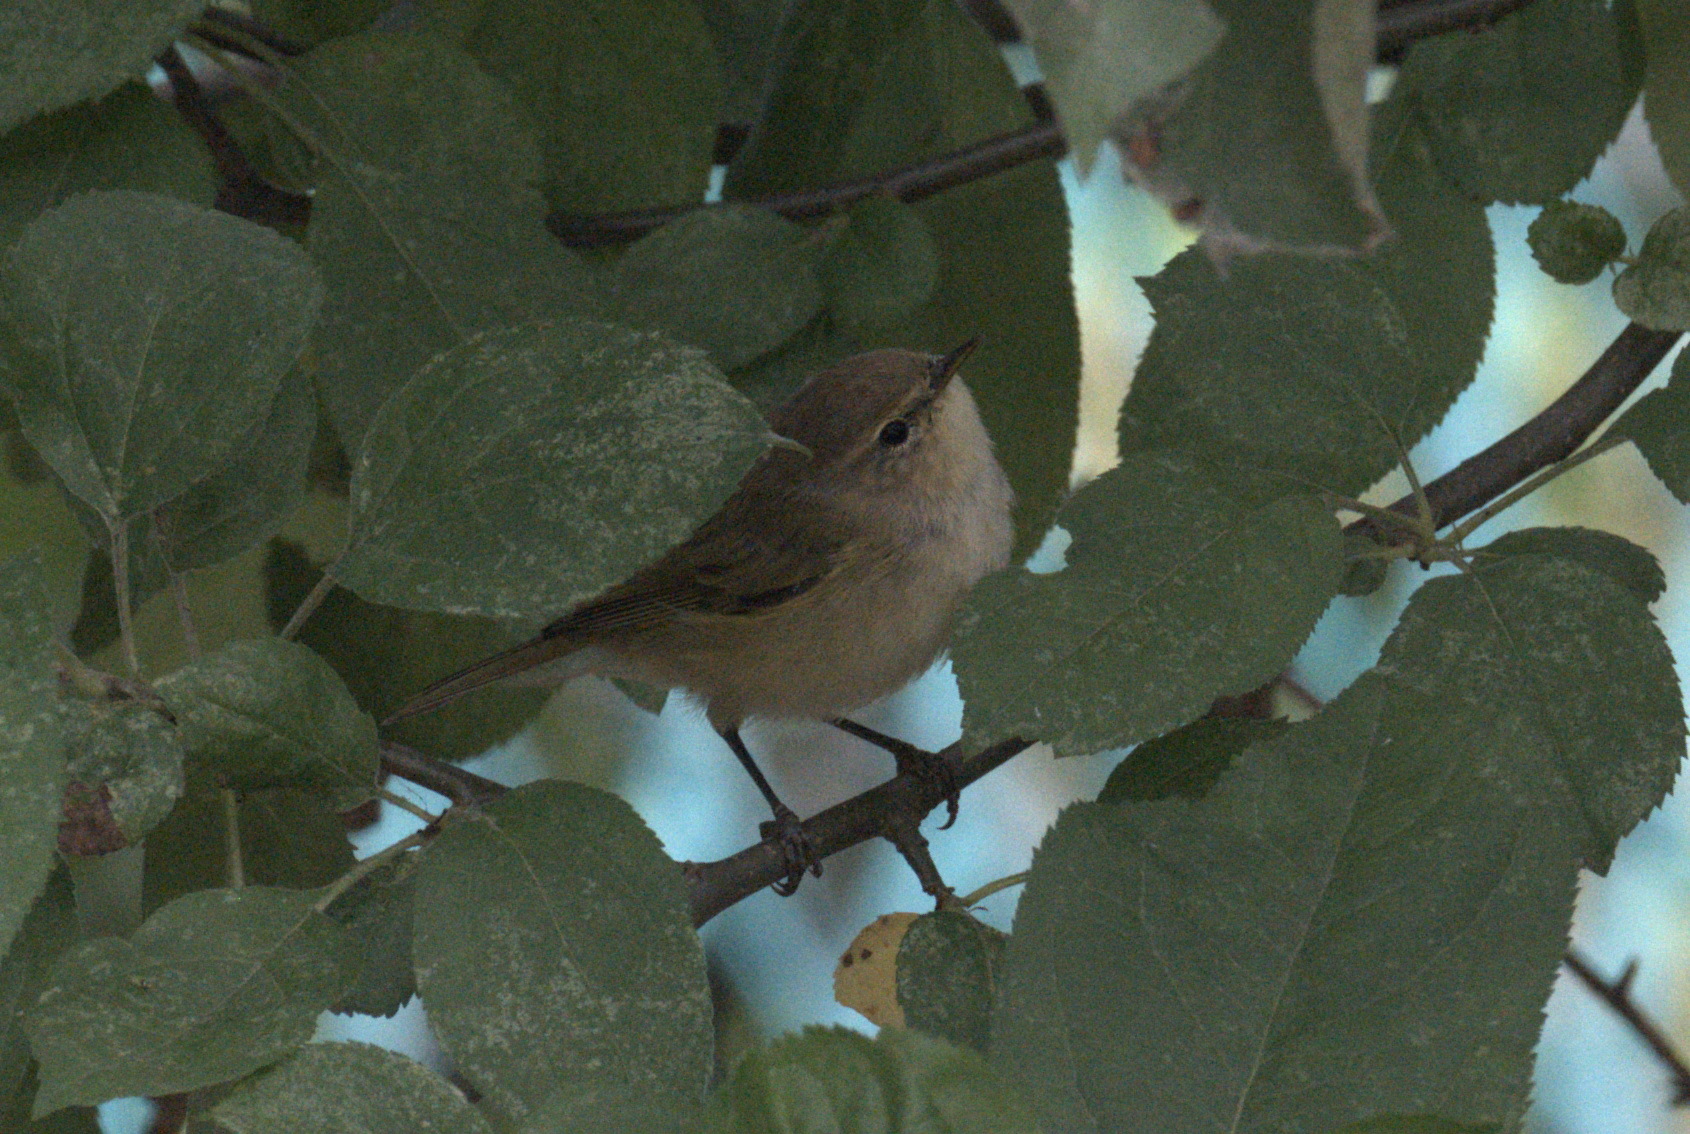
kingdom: Animalia
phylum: Chordata
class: Aves
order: Passeriformes
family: Phylloscopidae
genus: Phylloscopus
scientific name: Phylloscopus collybita
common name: Common chiffchaff
